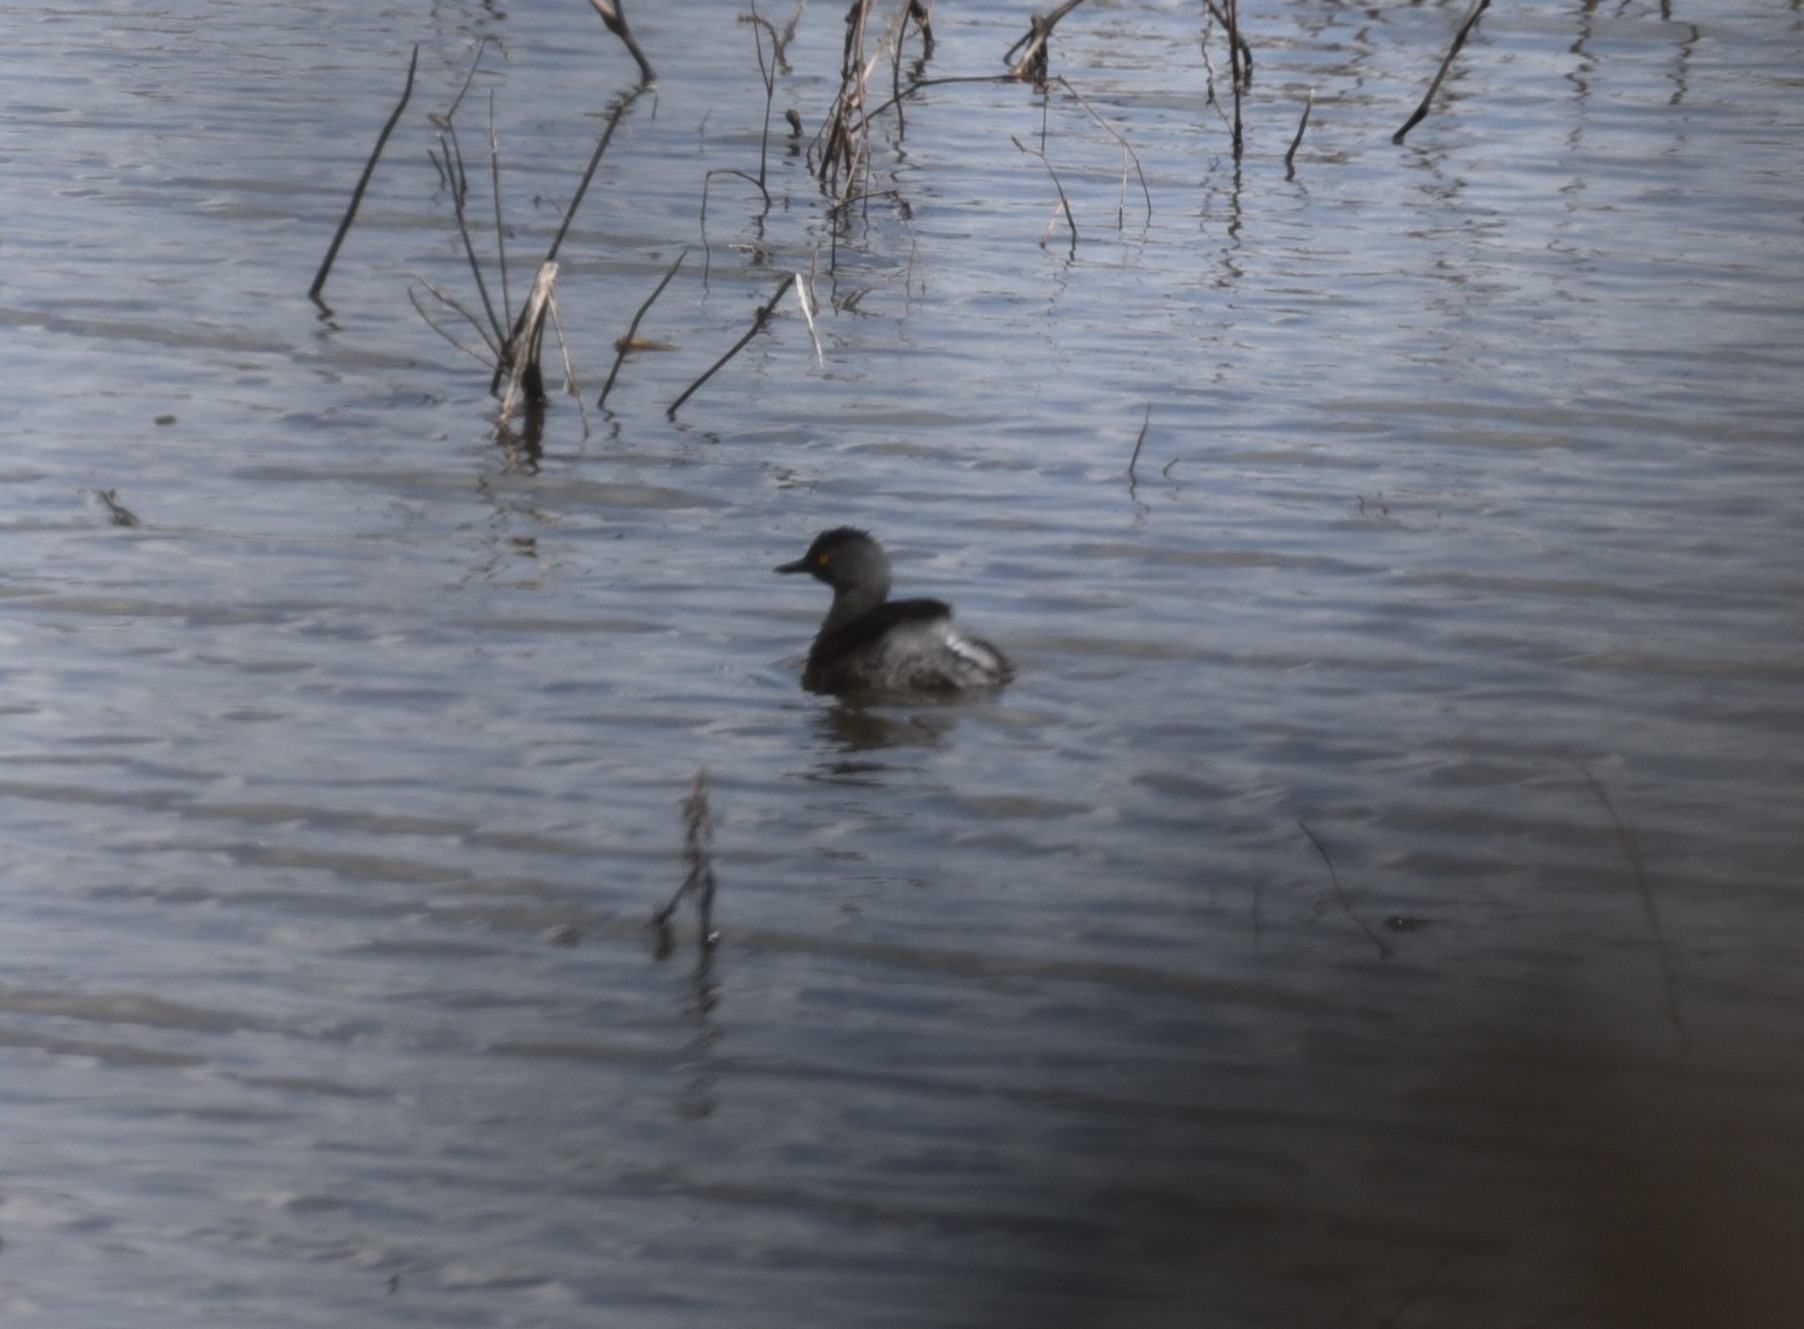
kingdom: Animalia
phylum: Chordata
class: Aves
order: Podicipediformes
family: Podicipedidae
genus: Tachybaptus
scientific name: Tachybaptus dominicus
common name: Least grebe
